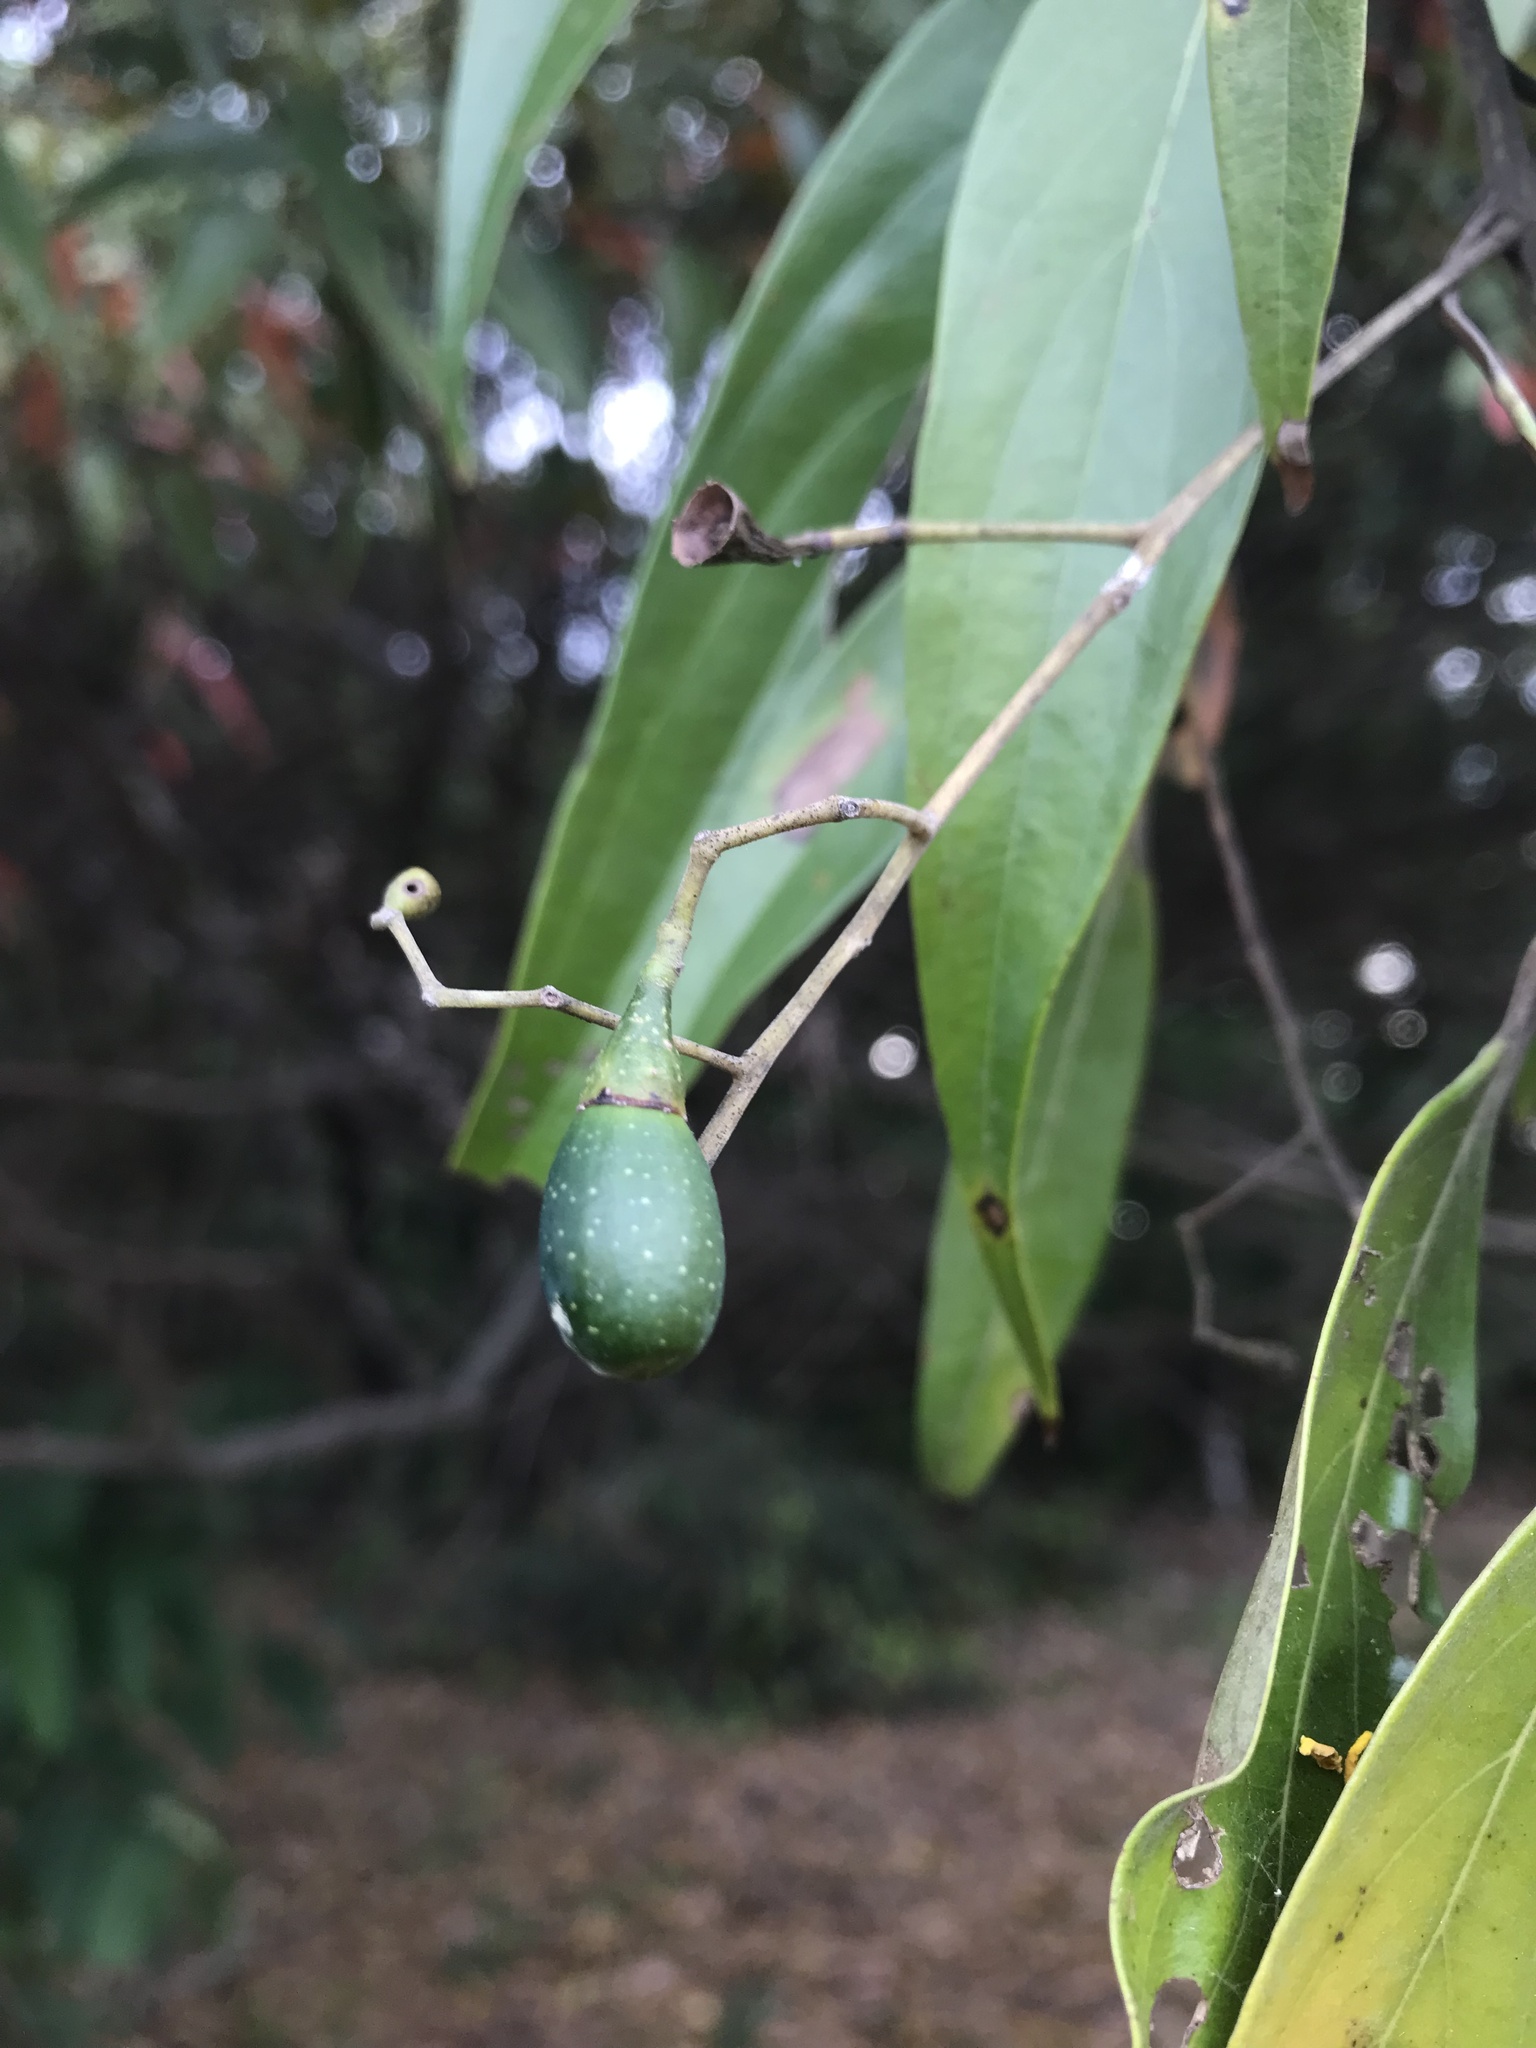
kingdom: Plantae
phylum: Tracheophyta
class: Magnoliopsida
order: Laurales
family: Lauraceae
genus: Nectandra
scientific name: Nectandra cuspidata
